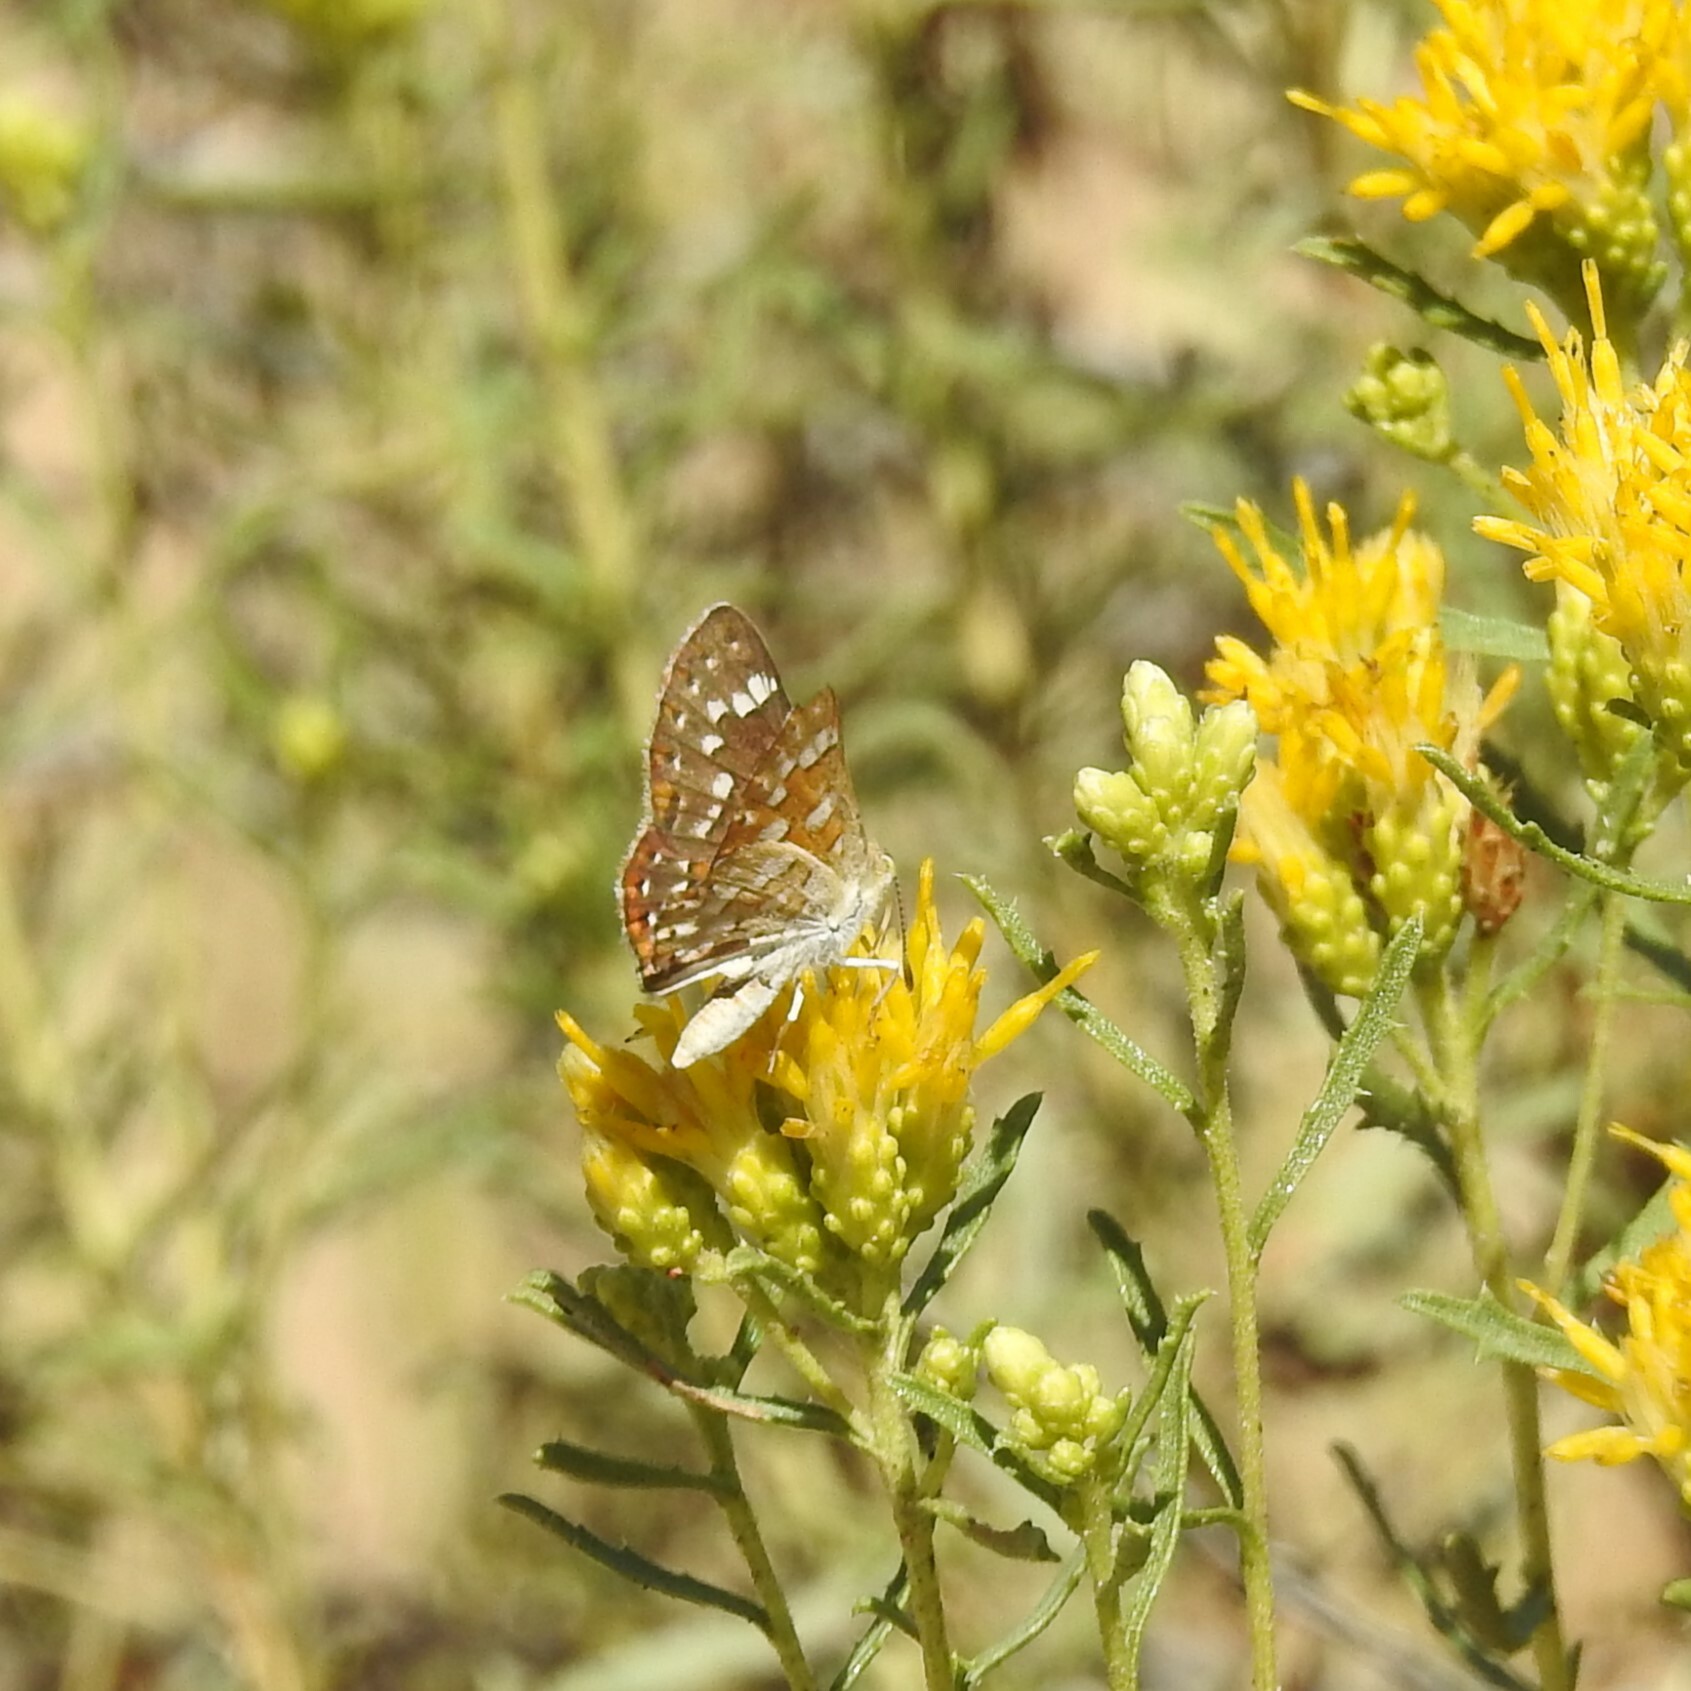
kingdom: Animalia
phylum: Arthropoda
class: Insecta
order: Lepidoptera
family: Riodinidae
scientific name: Riodinidae
